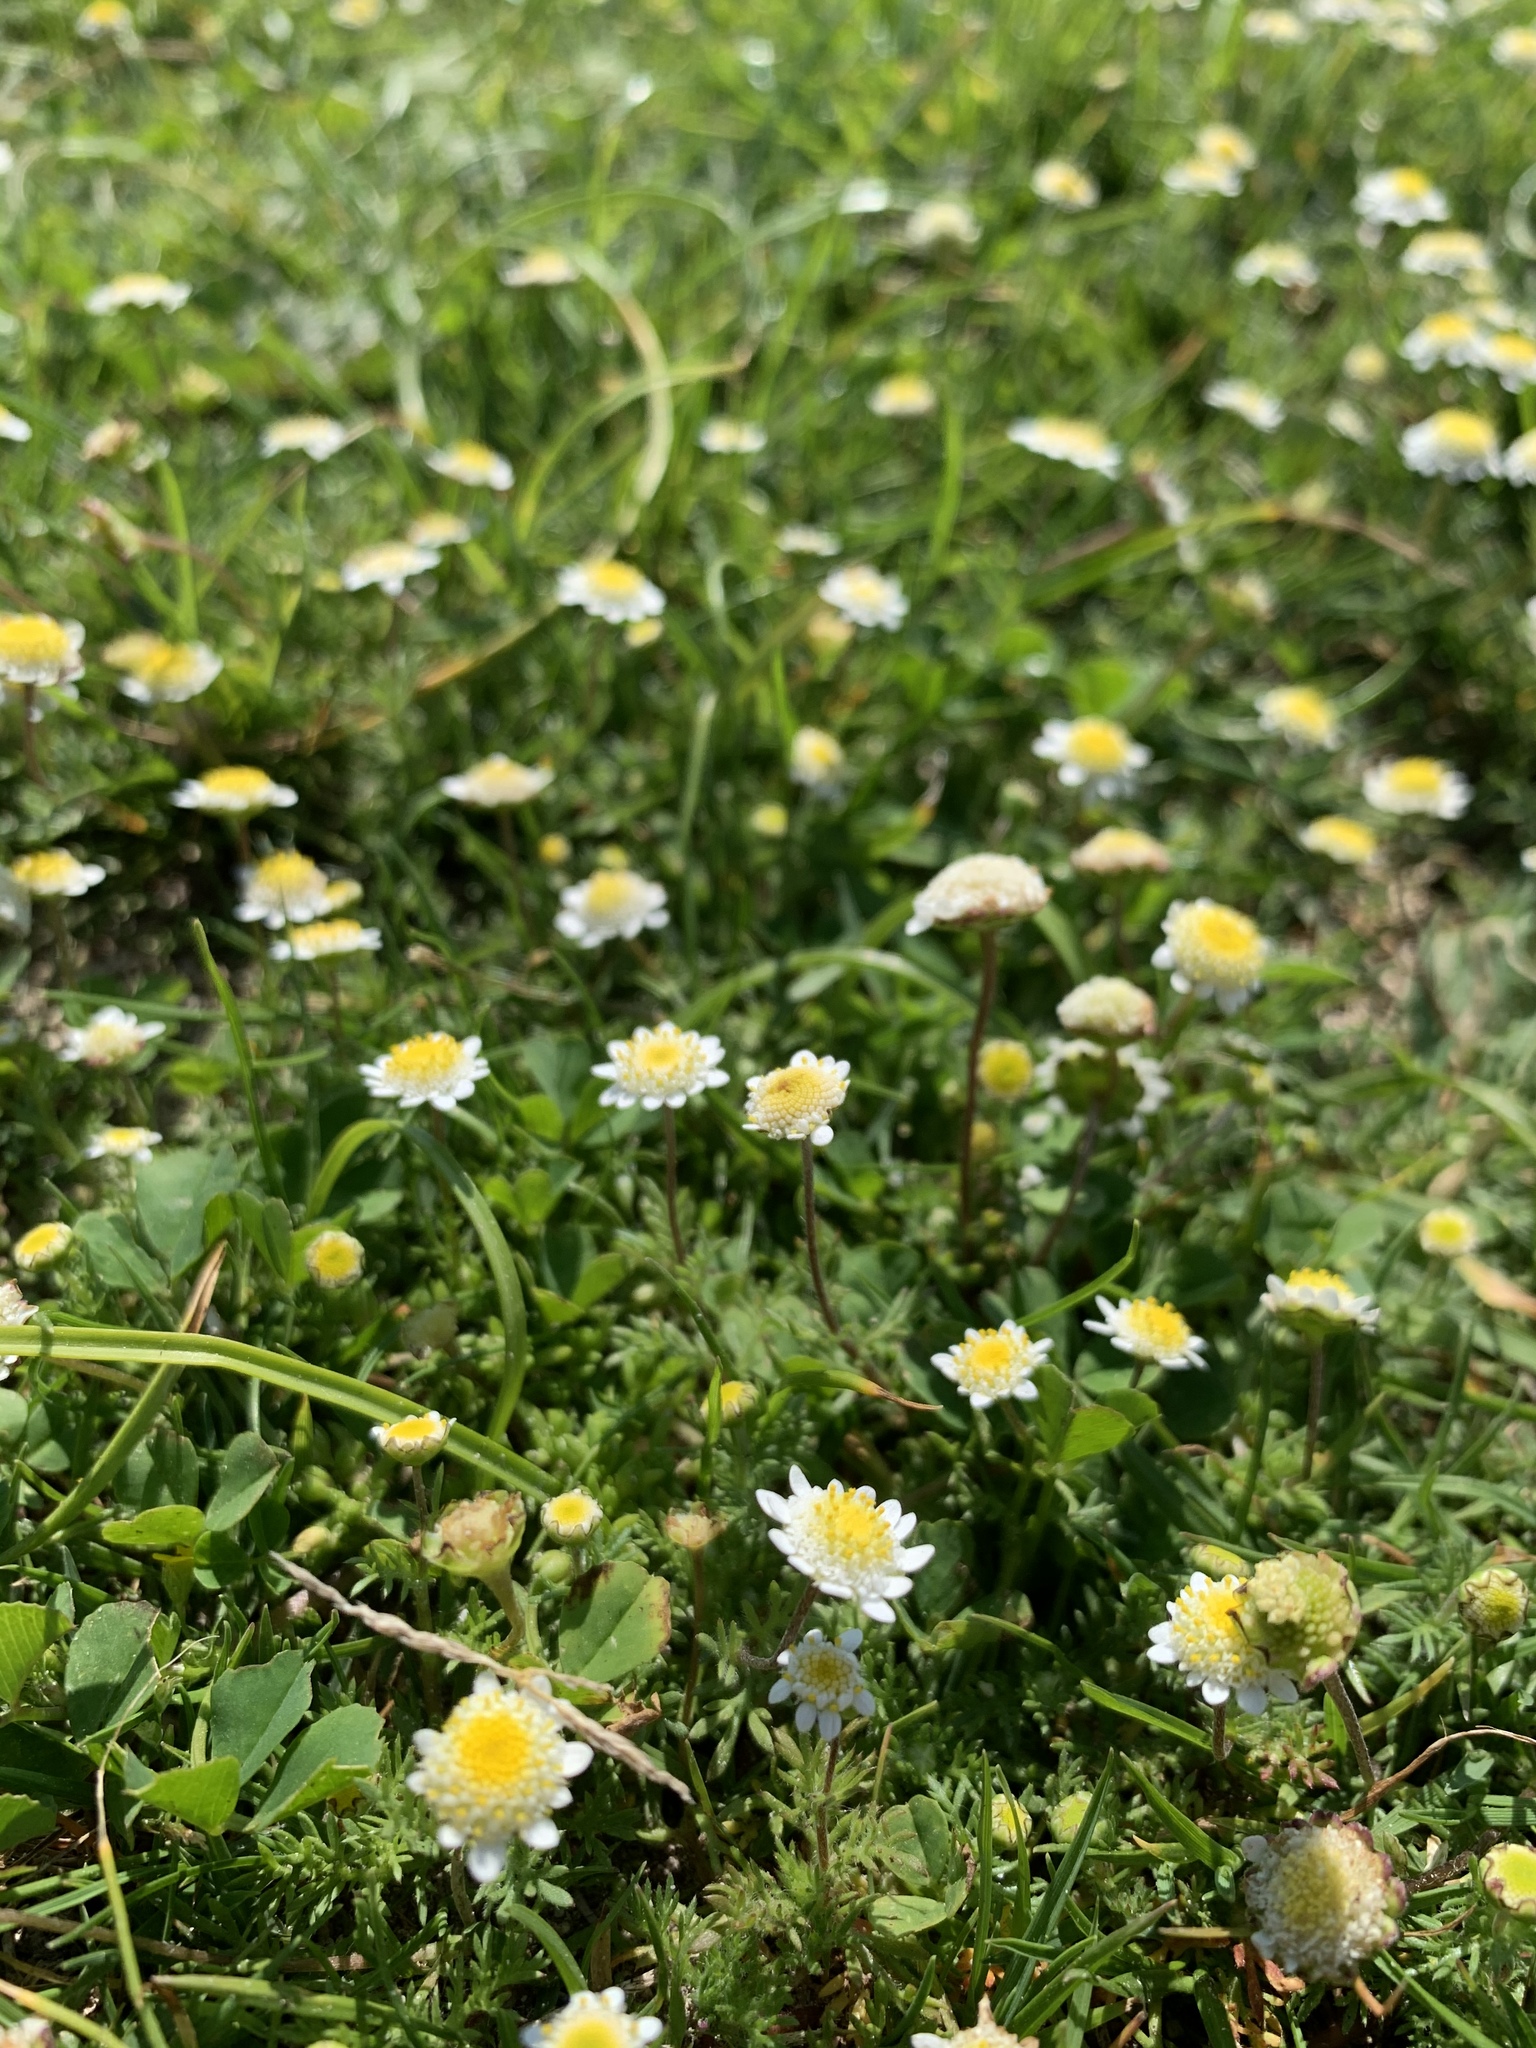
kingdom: Plantae
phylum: Tracheophyta
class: Magnoliopsida
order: Asterales
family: Asteraceae
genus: Cotula
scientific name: Cotula turbinata
